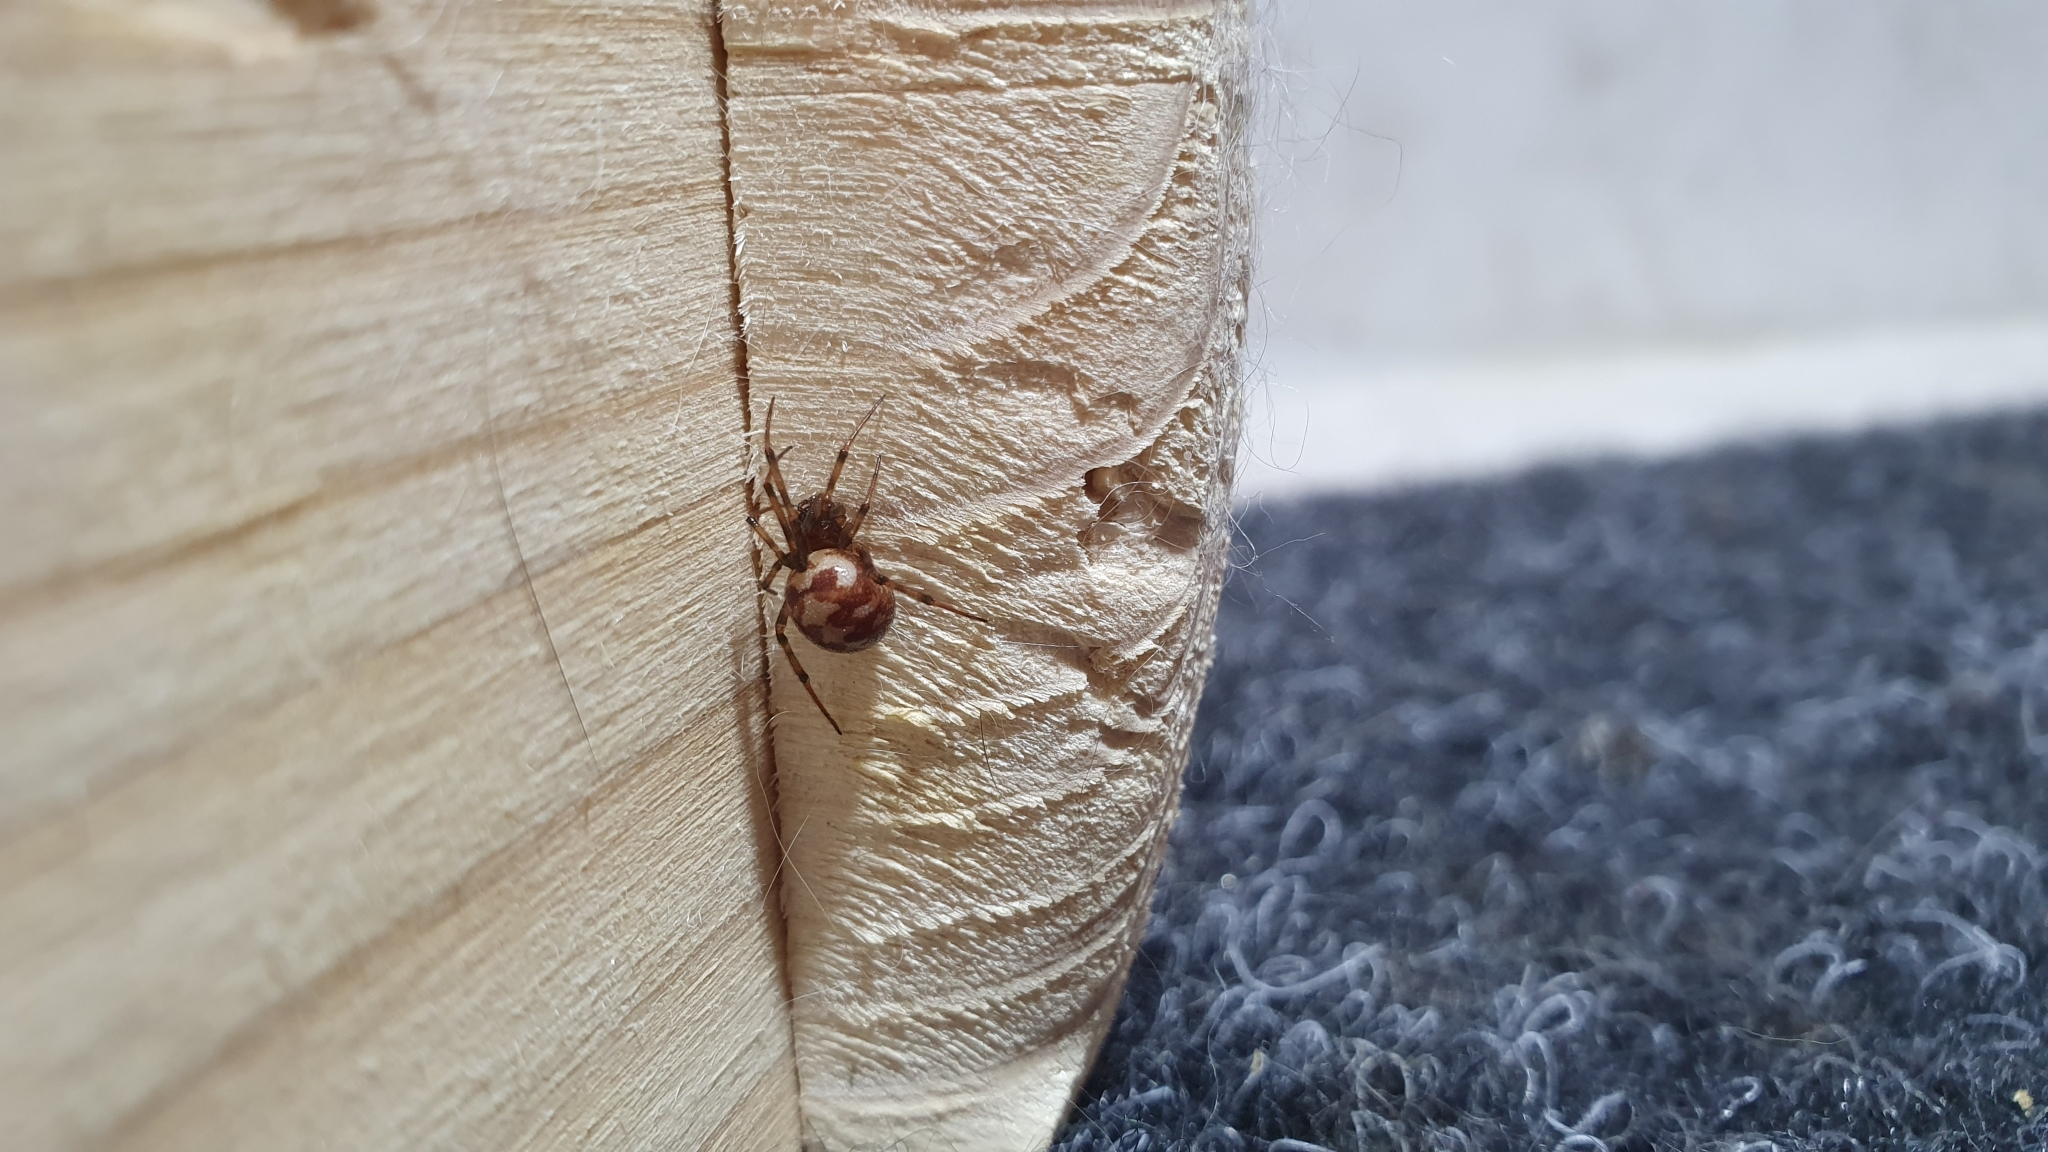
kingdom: Animalia
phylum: Arthropoda
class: Arachnida
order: Araneae
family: Theridiidae
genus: Steatoda
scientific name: Steatoda triangulosa
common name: Triangulate bud spider
